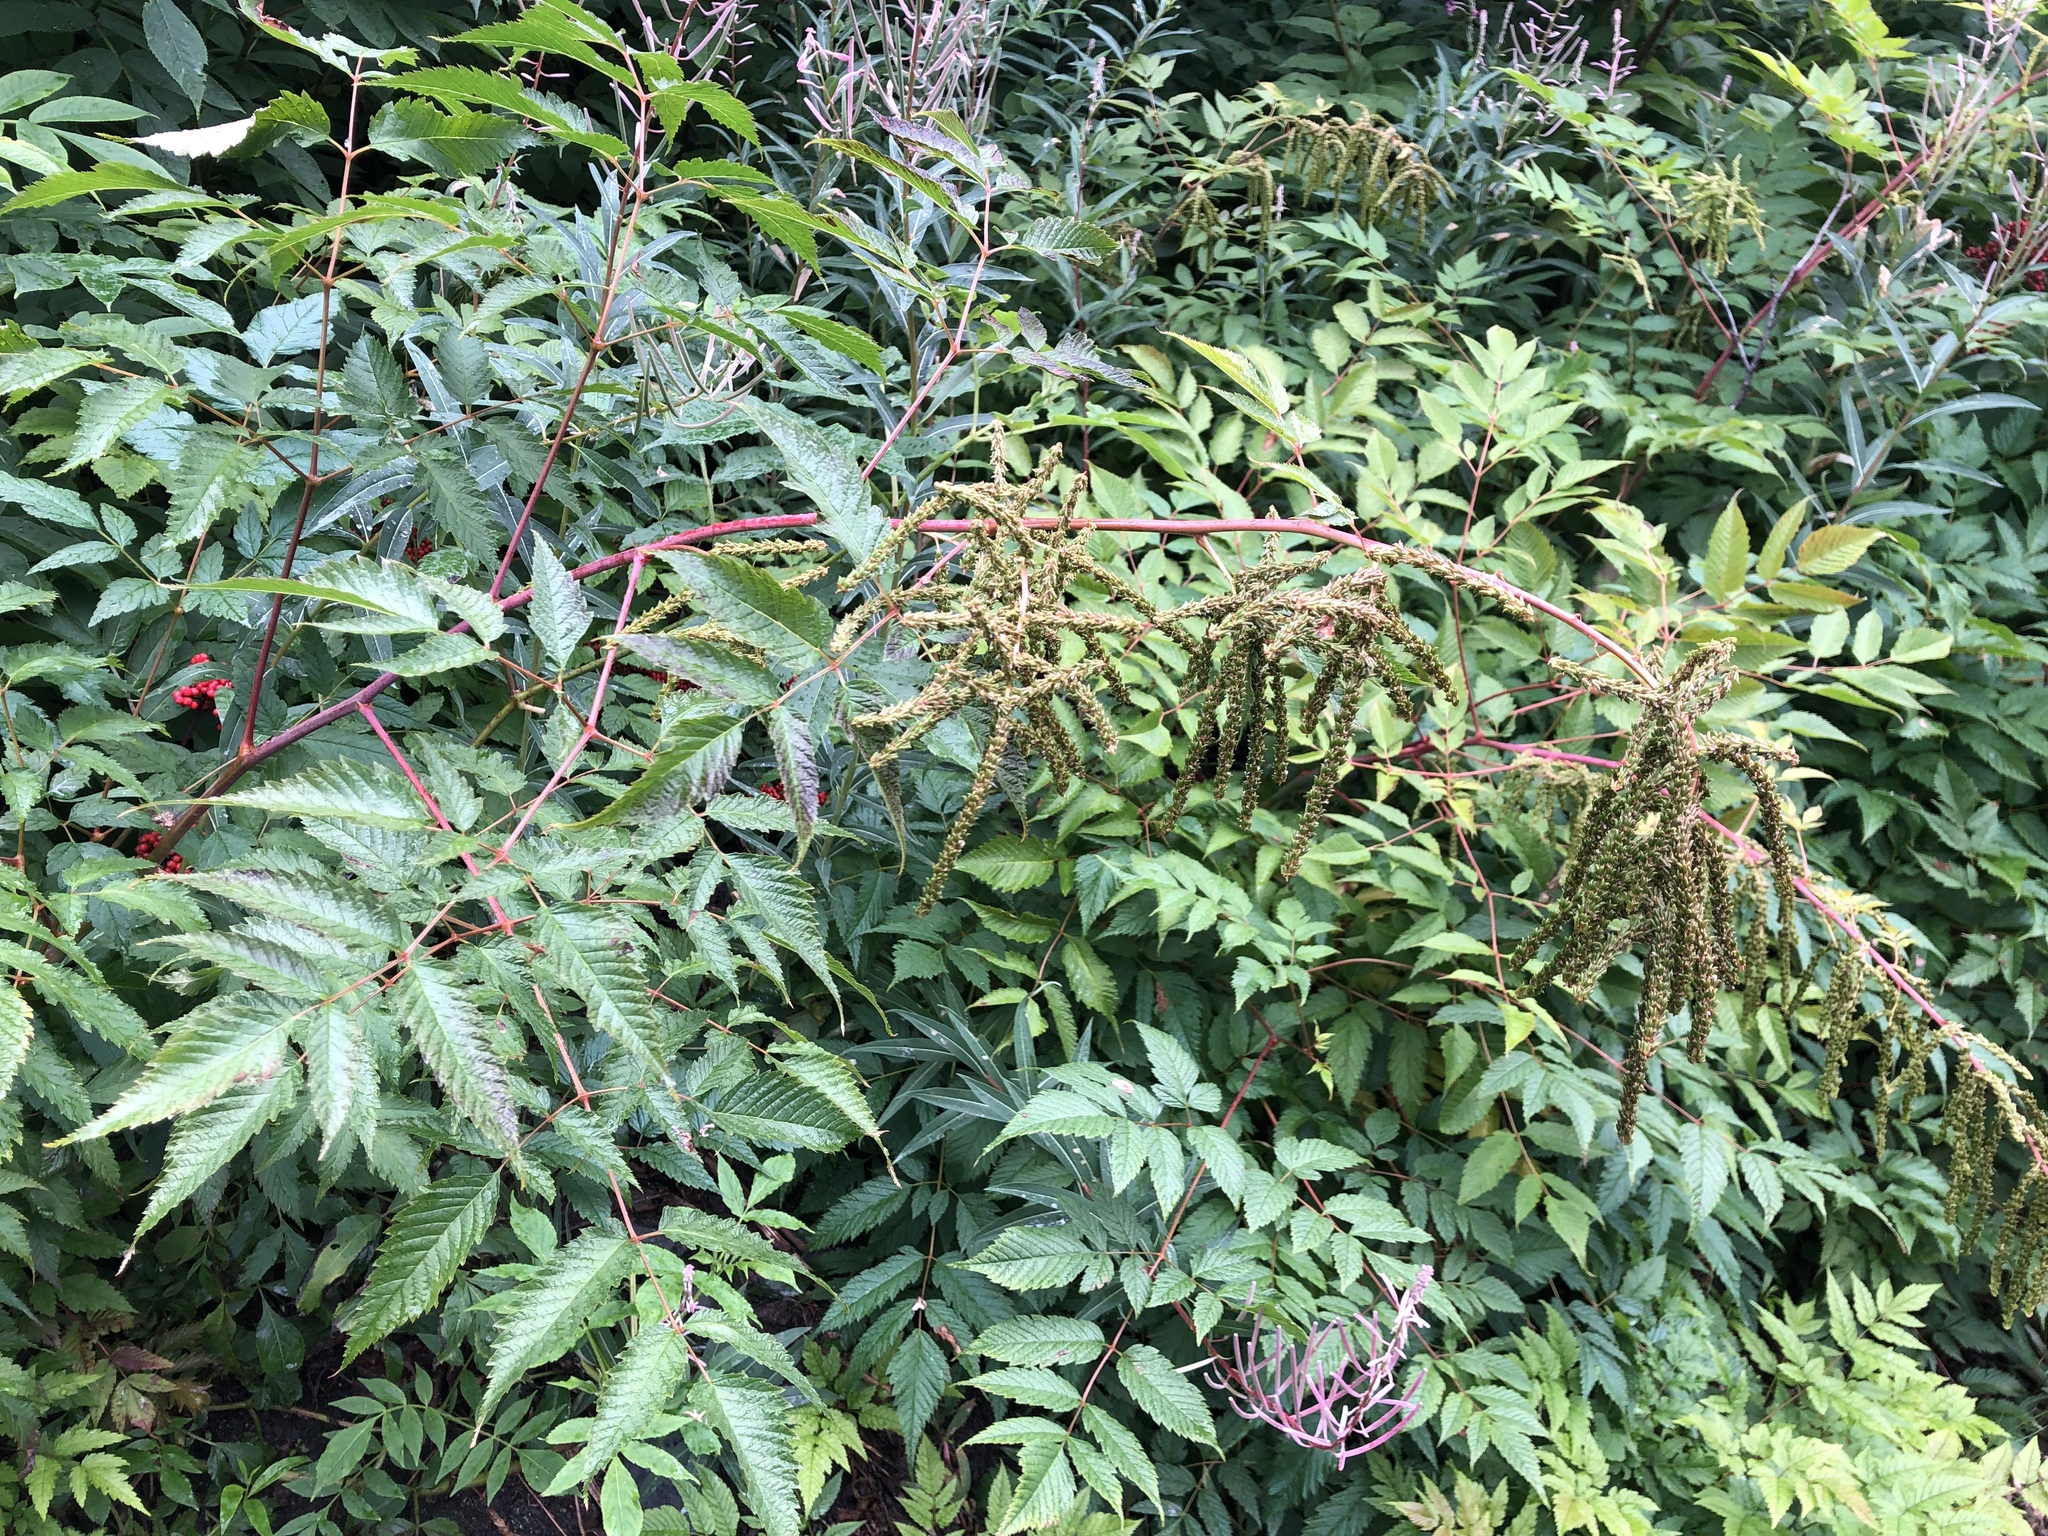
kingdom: Plantae
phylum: Tracheophyta
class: Magnoliopsida
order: Rosales
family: Rosaceae
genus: Aruncus
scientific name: Aruncus dioicus
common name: Buck's-beard
